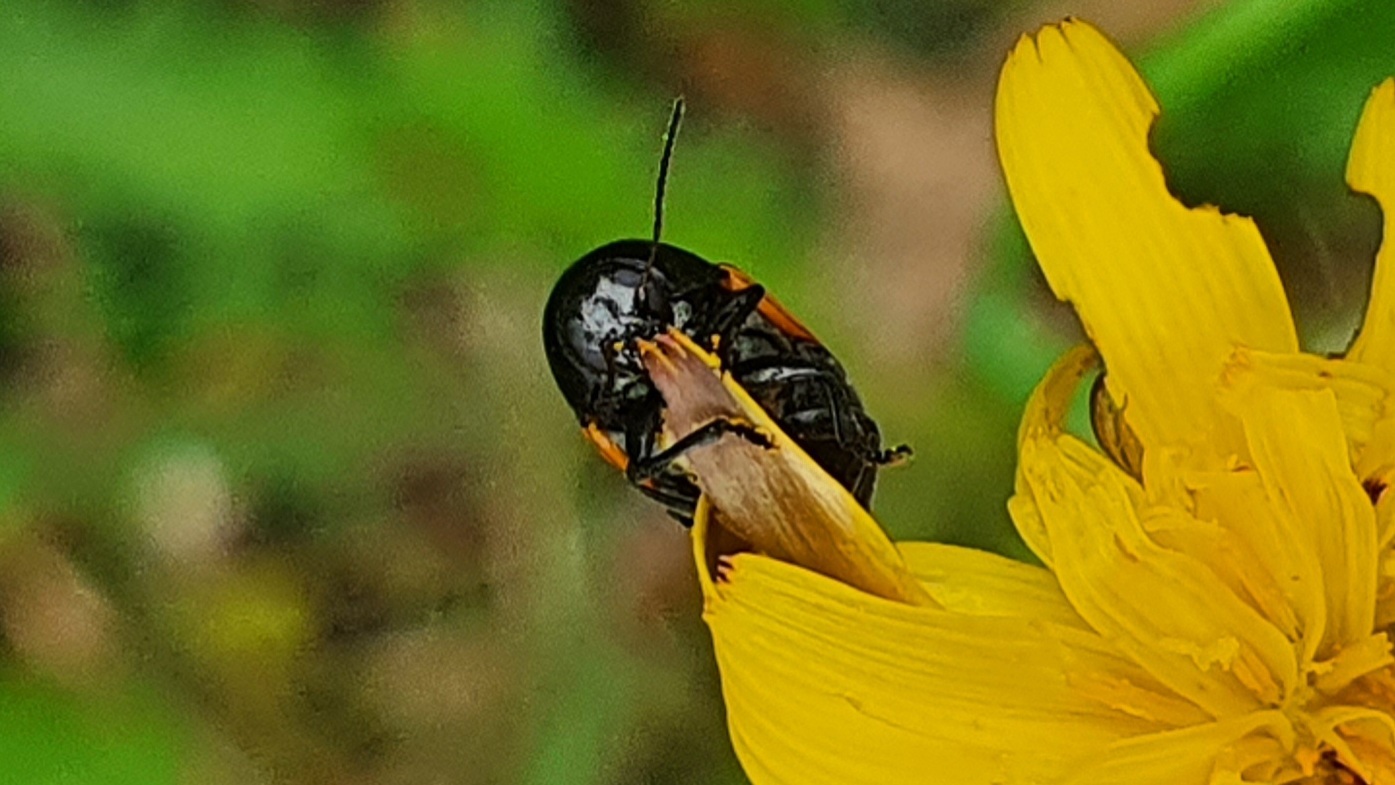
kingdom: Animalia
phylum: Arthropoda
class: Insecta
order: Coleoptera
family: Chrysomelidae
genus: Acalymma
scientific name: Acalymma vittatum
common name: Striped cucumber beetle
